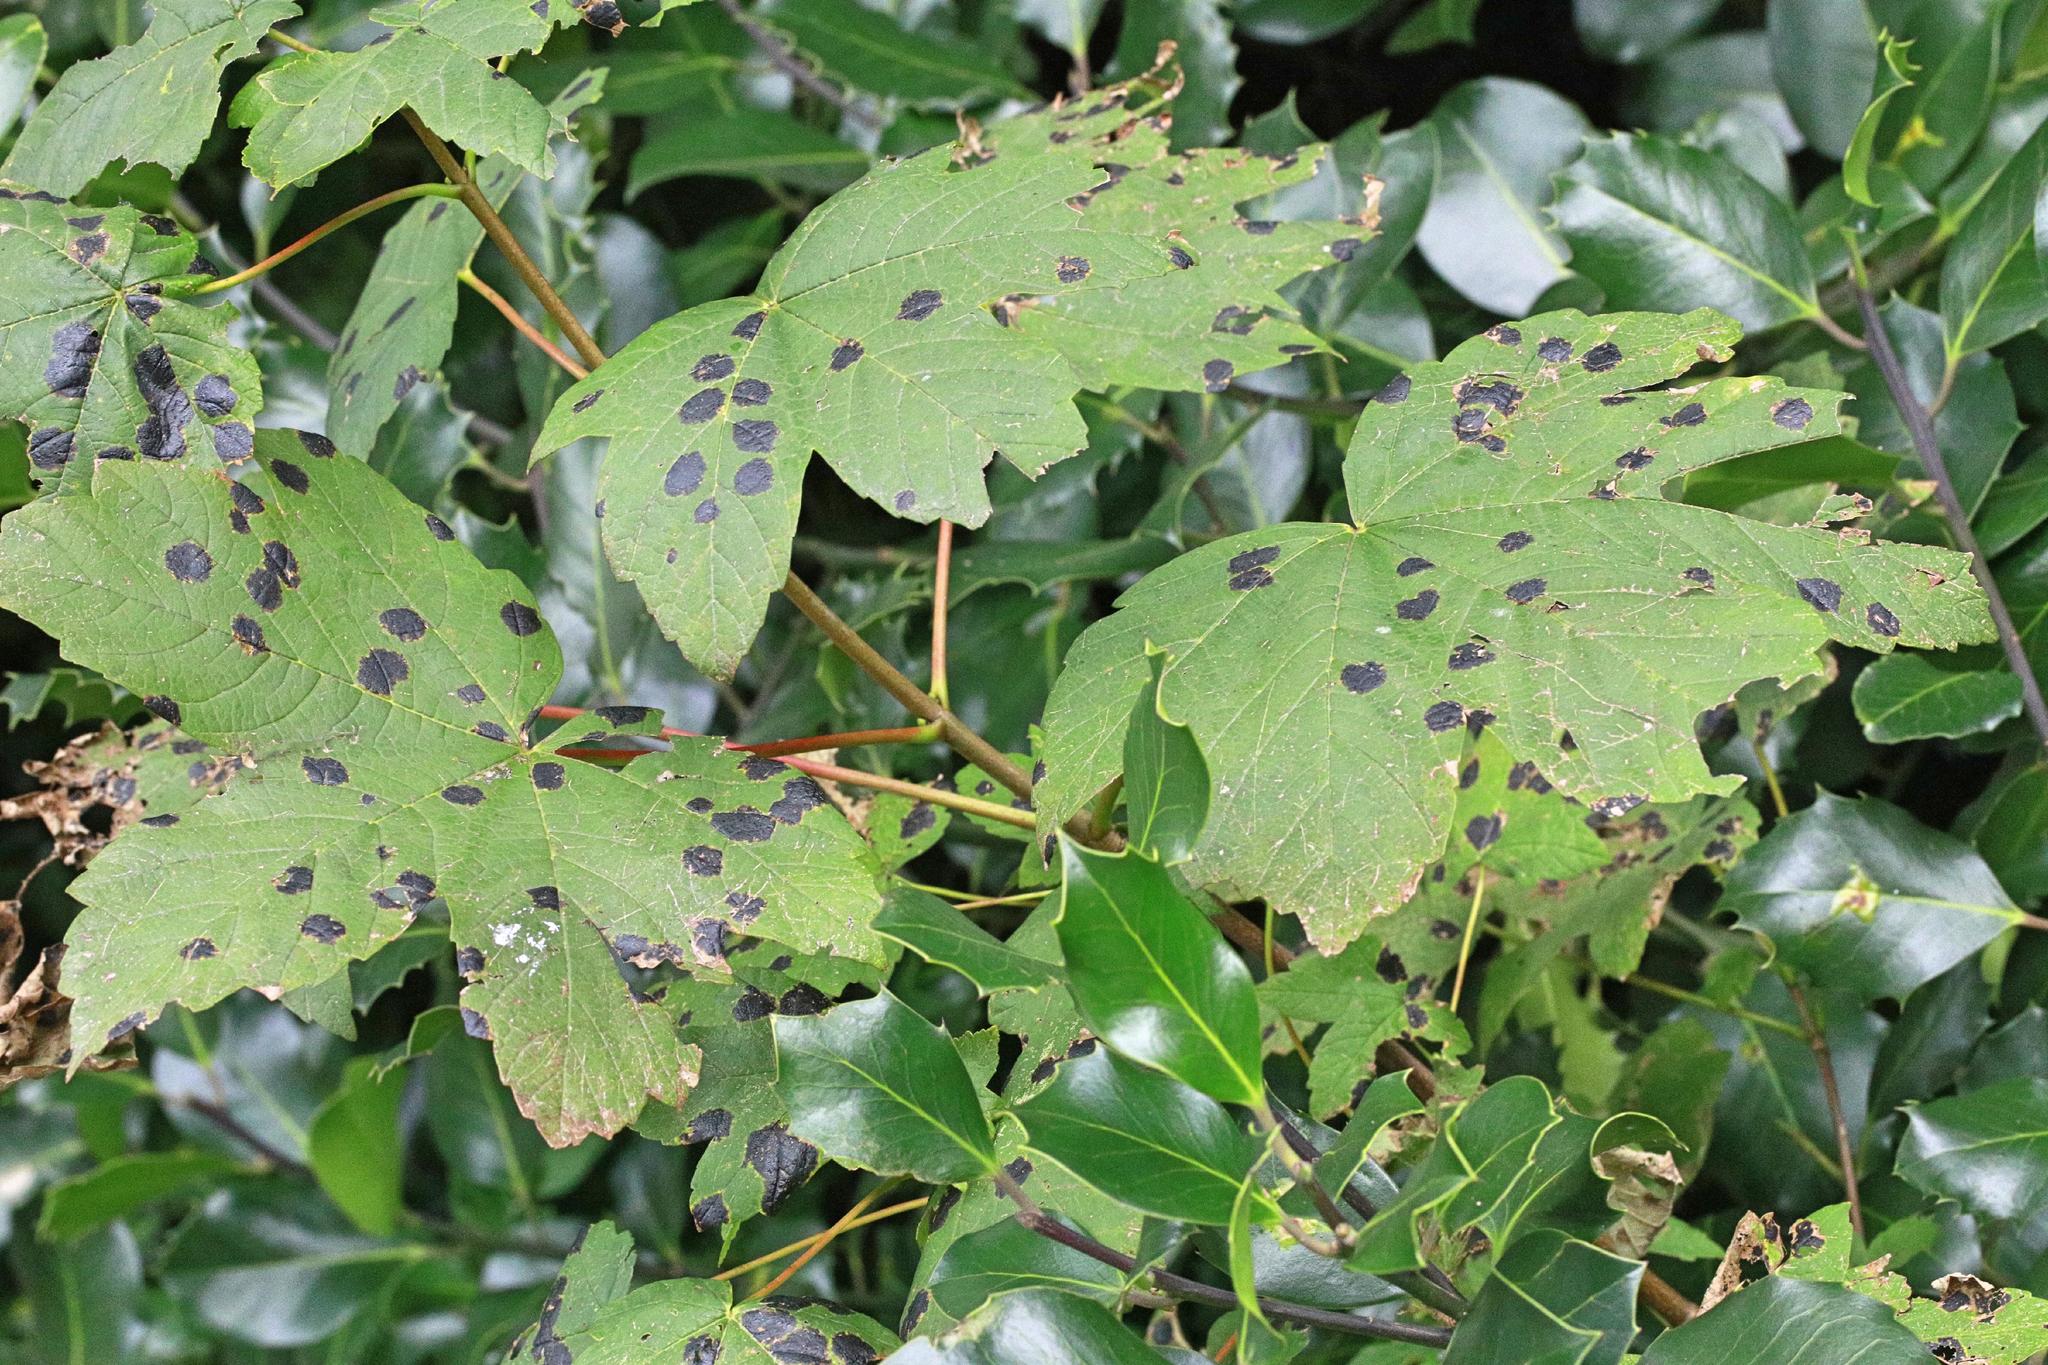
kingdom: Plantae
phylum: Tracheophyta
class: Magnoliopsida
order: Sapindales
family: Sapindaceae
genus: Acer
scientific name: Acer pseudoplatanus
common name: Sycamore
